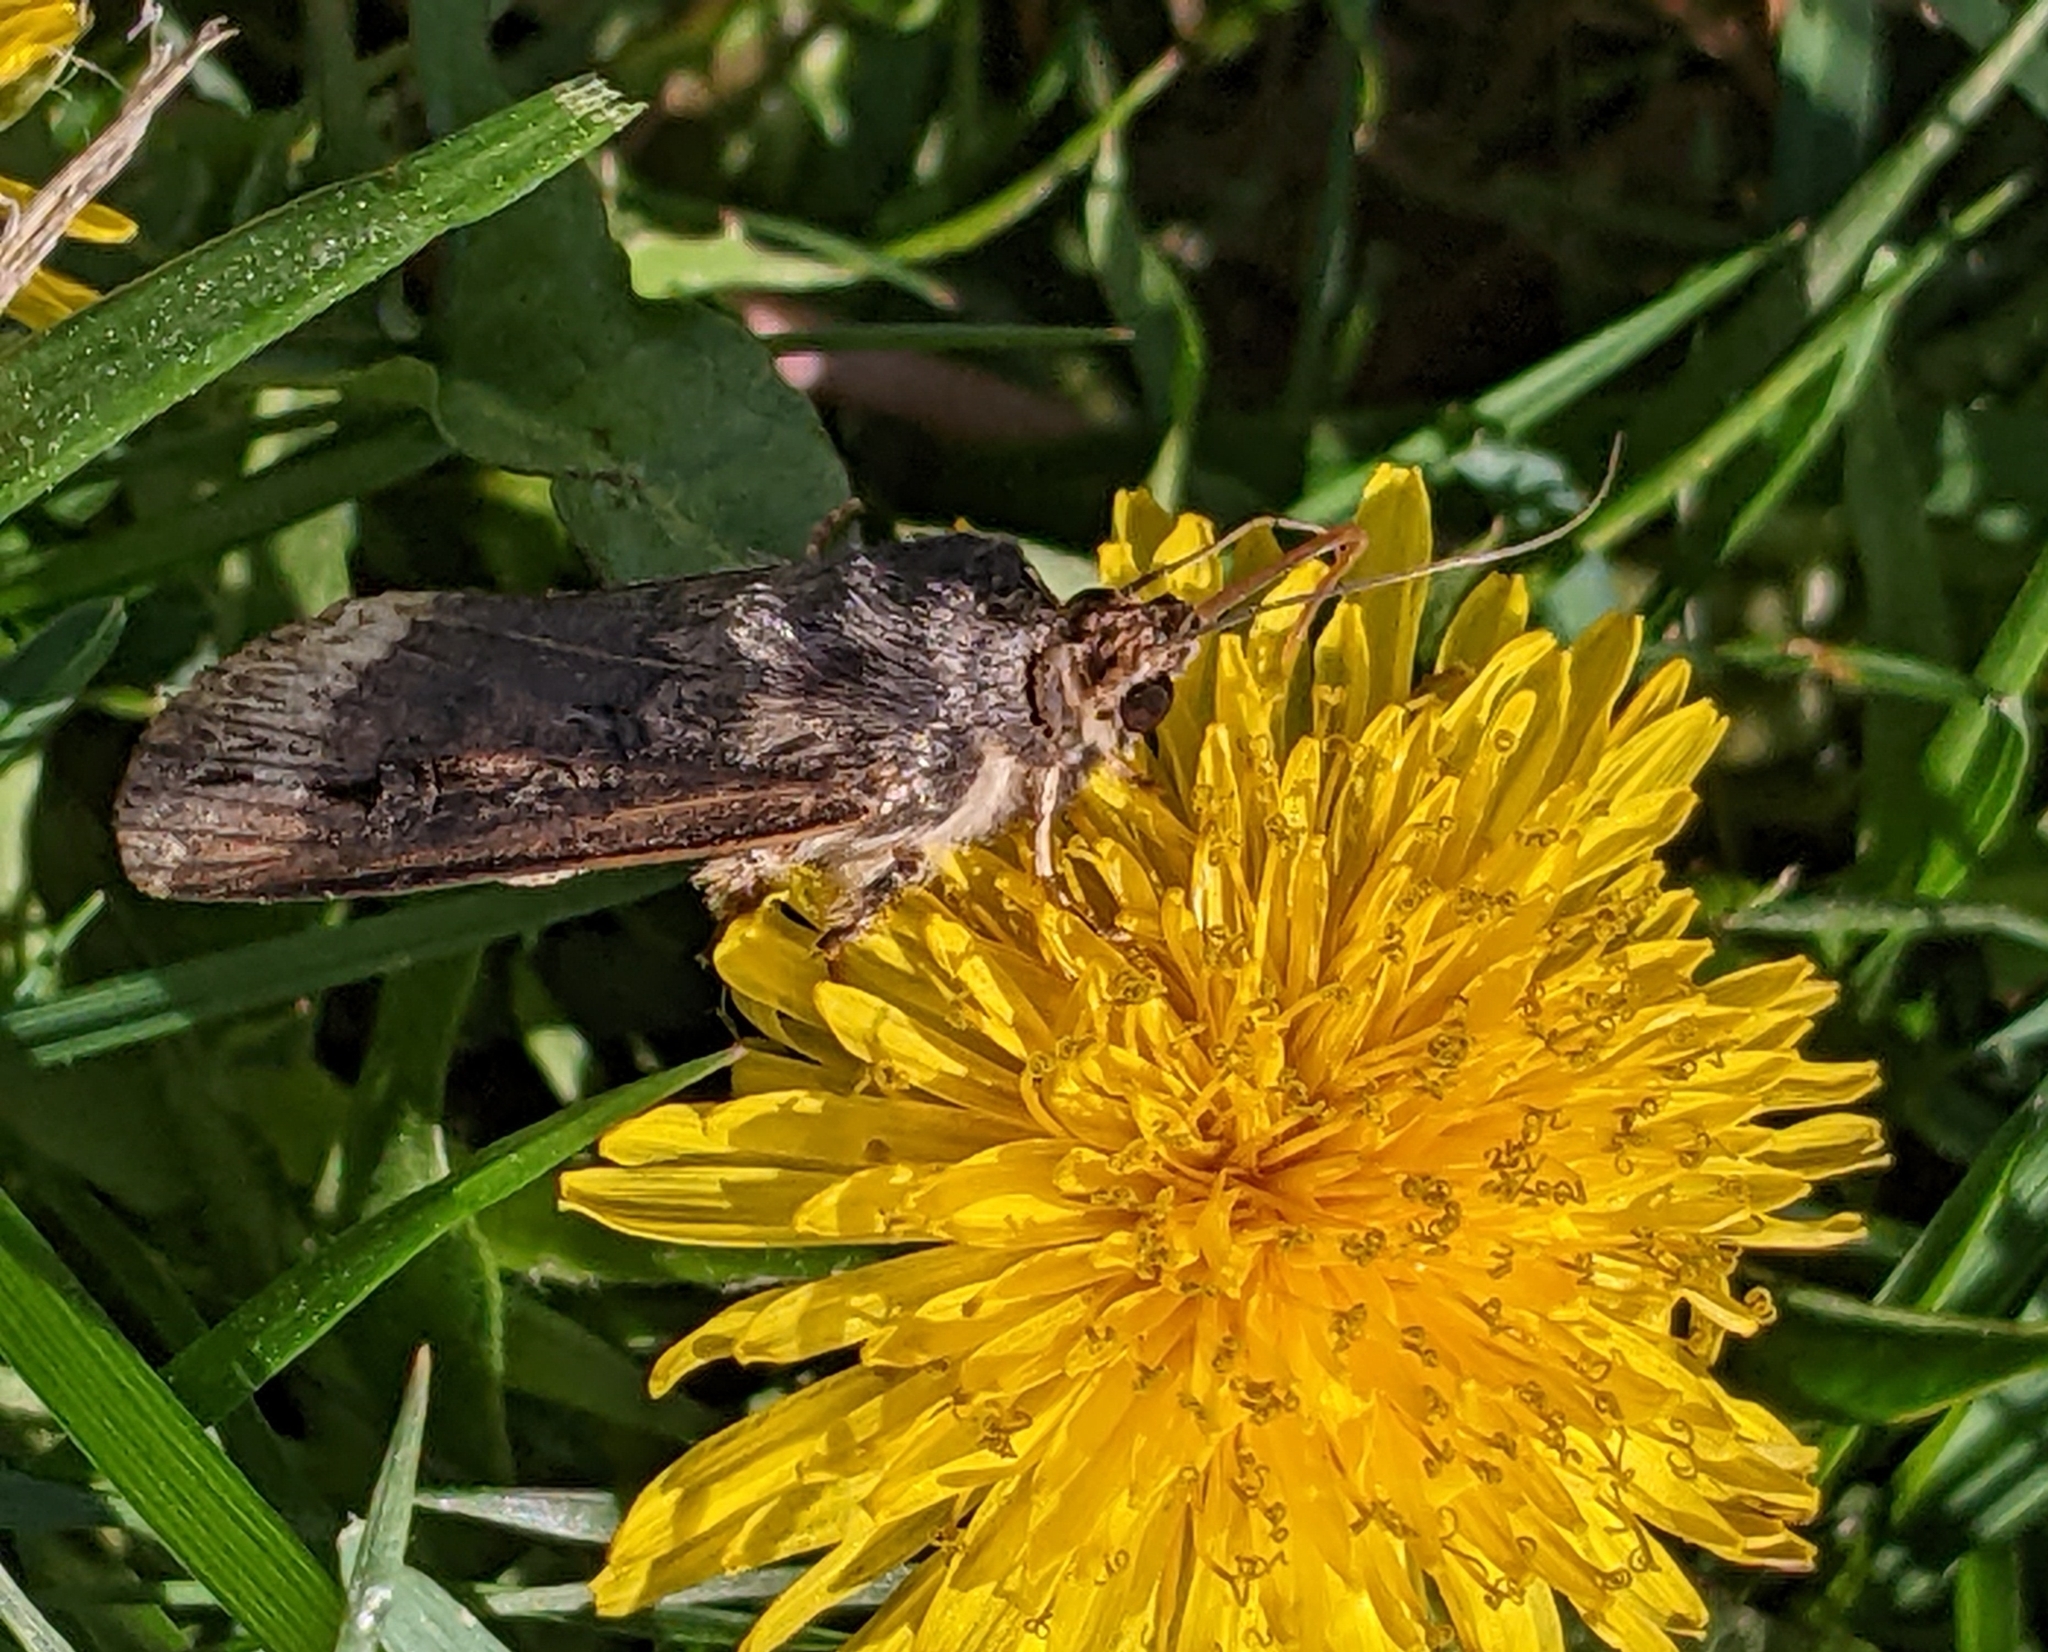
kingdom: Animalia
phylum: Arthropoda
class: Insecta
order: Lepidoptera
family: Noctuidae
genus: Agrotis
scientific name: Agrotis ipsilon
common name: Dark sword-grass
